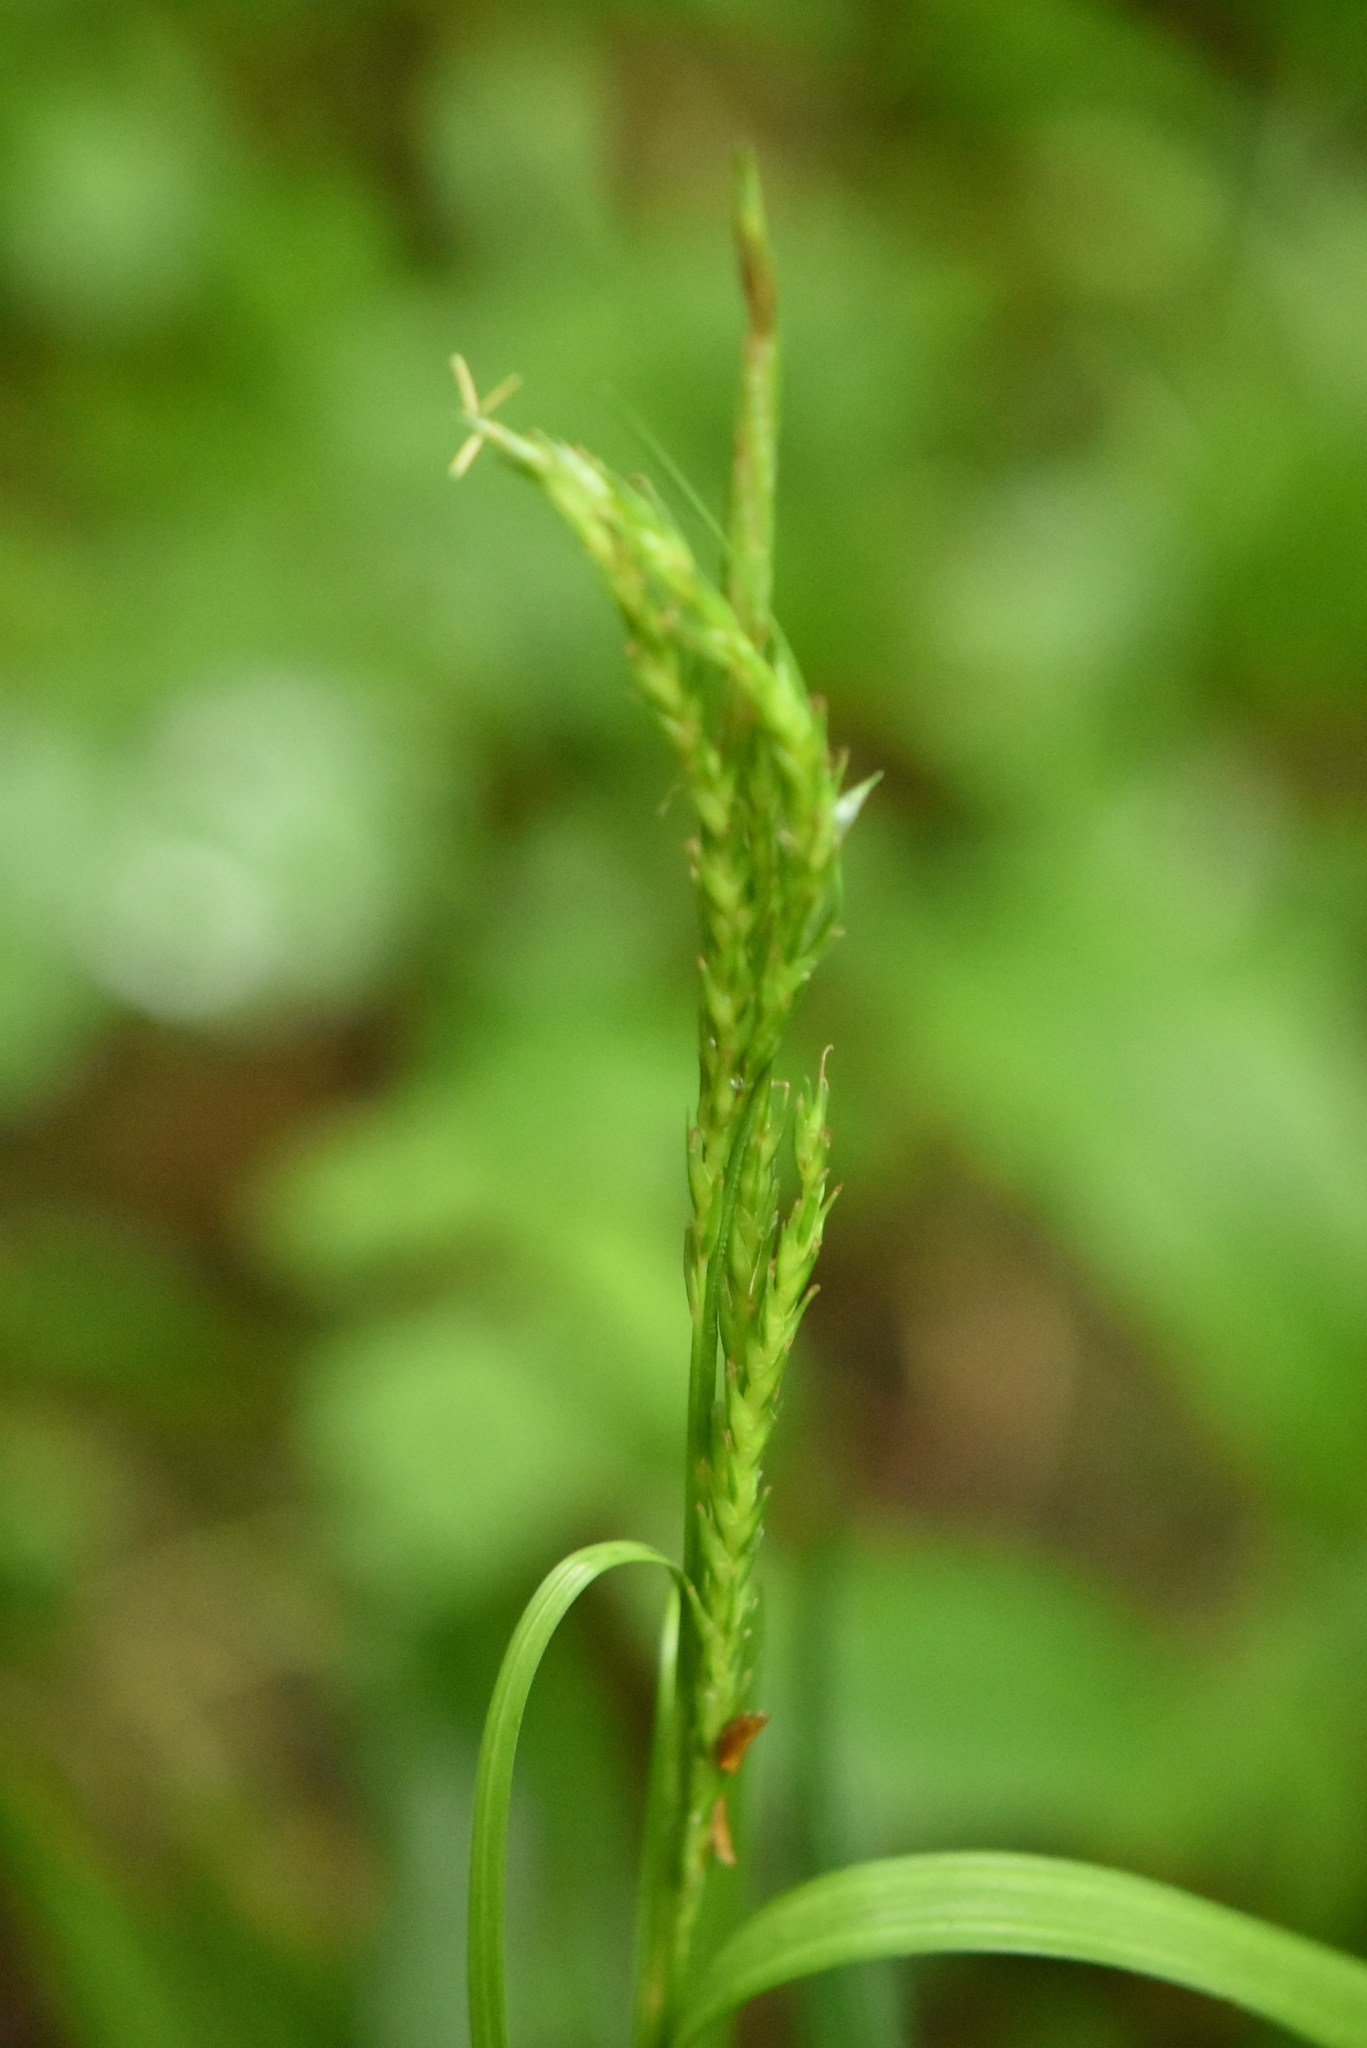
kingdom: Plantae
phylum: Tracheophyta
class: Liliopsida
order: Poales
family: Cyperaceae
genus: Carex
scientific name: Carex sylvatica
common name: Wood-sedge
